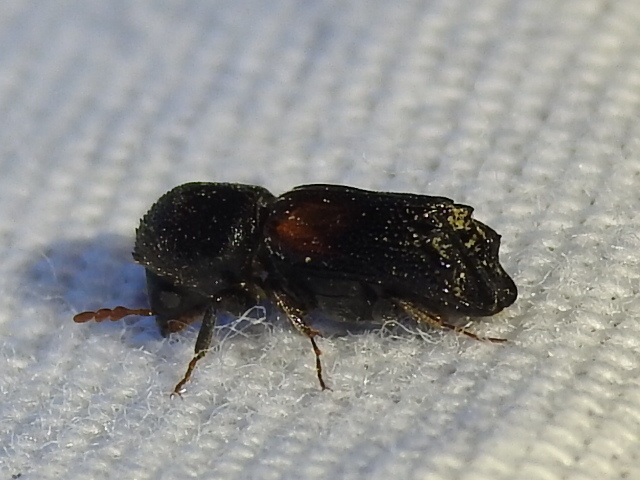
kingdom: Animalia
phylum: Arthropoda
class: Insecta
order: Coleoptera
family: Bostrichidae
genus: Xylobiops
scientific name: Xylobiops basilaris
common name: Red-shouldered bostrichid
